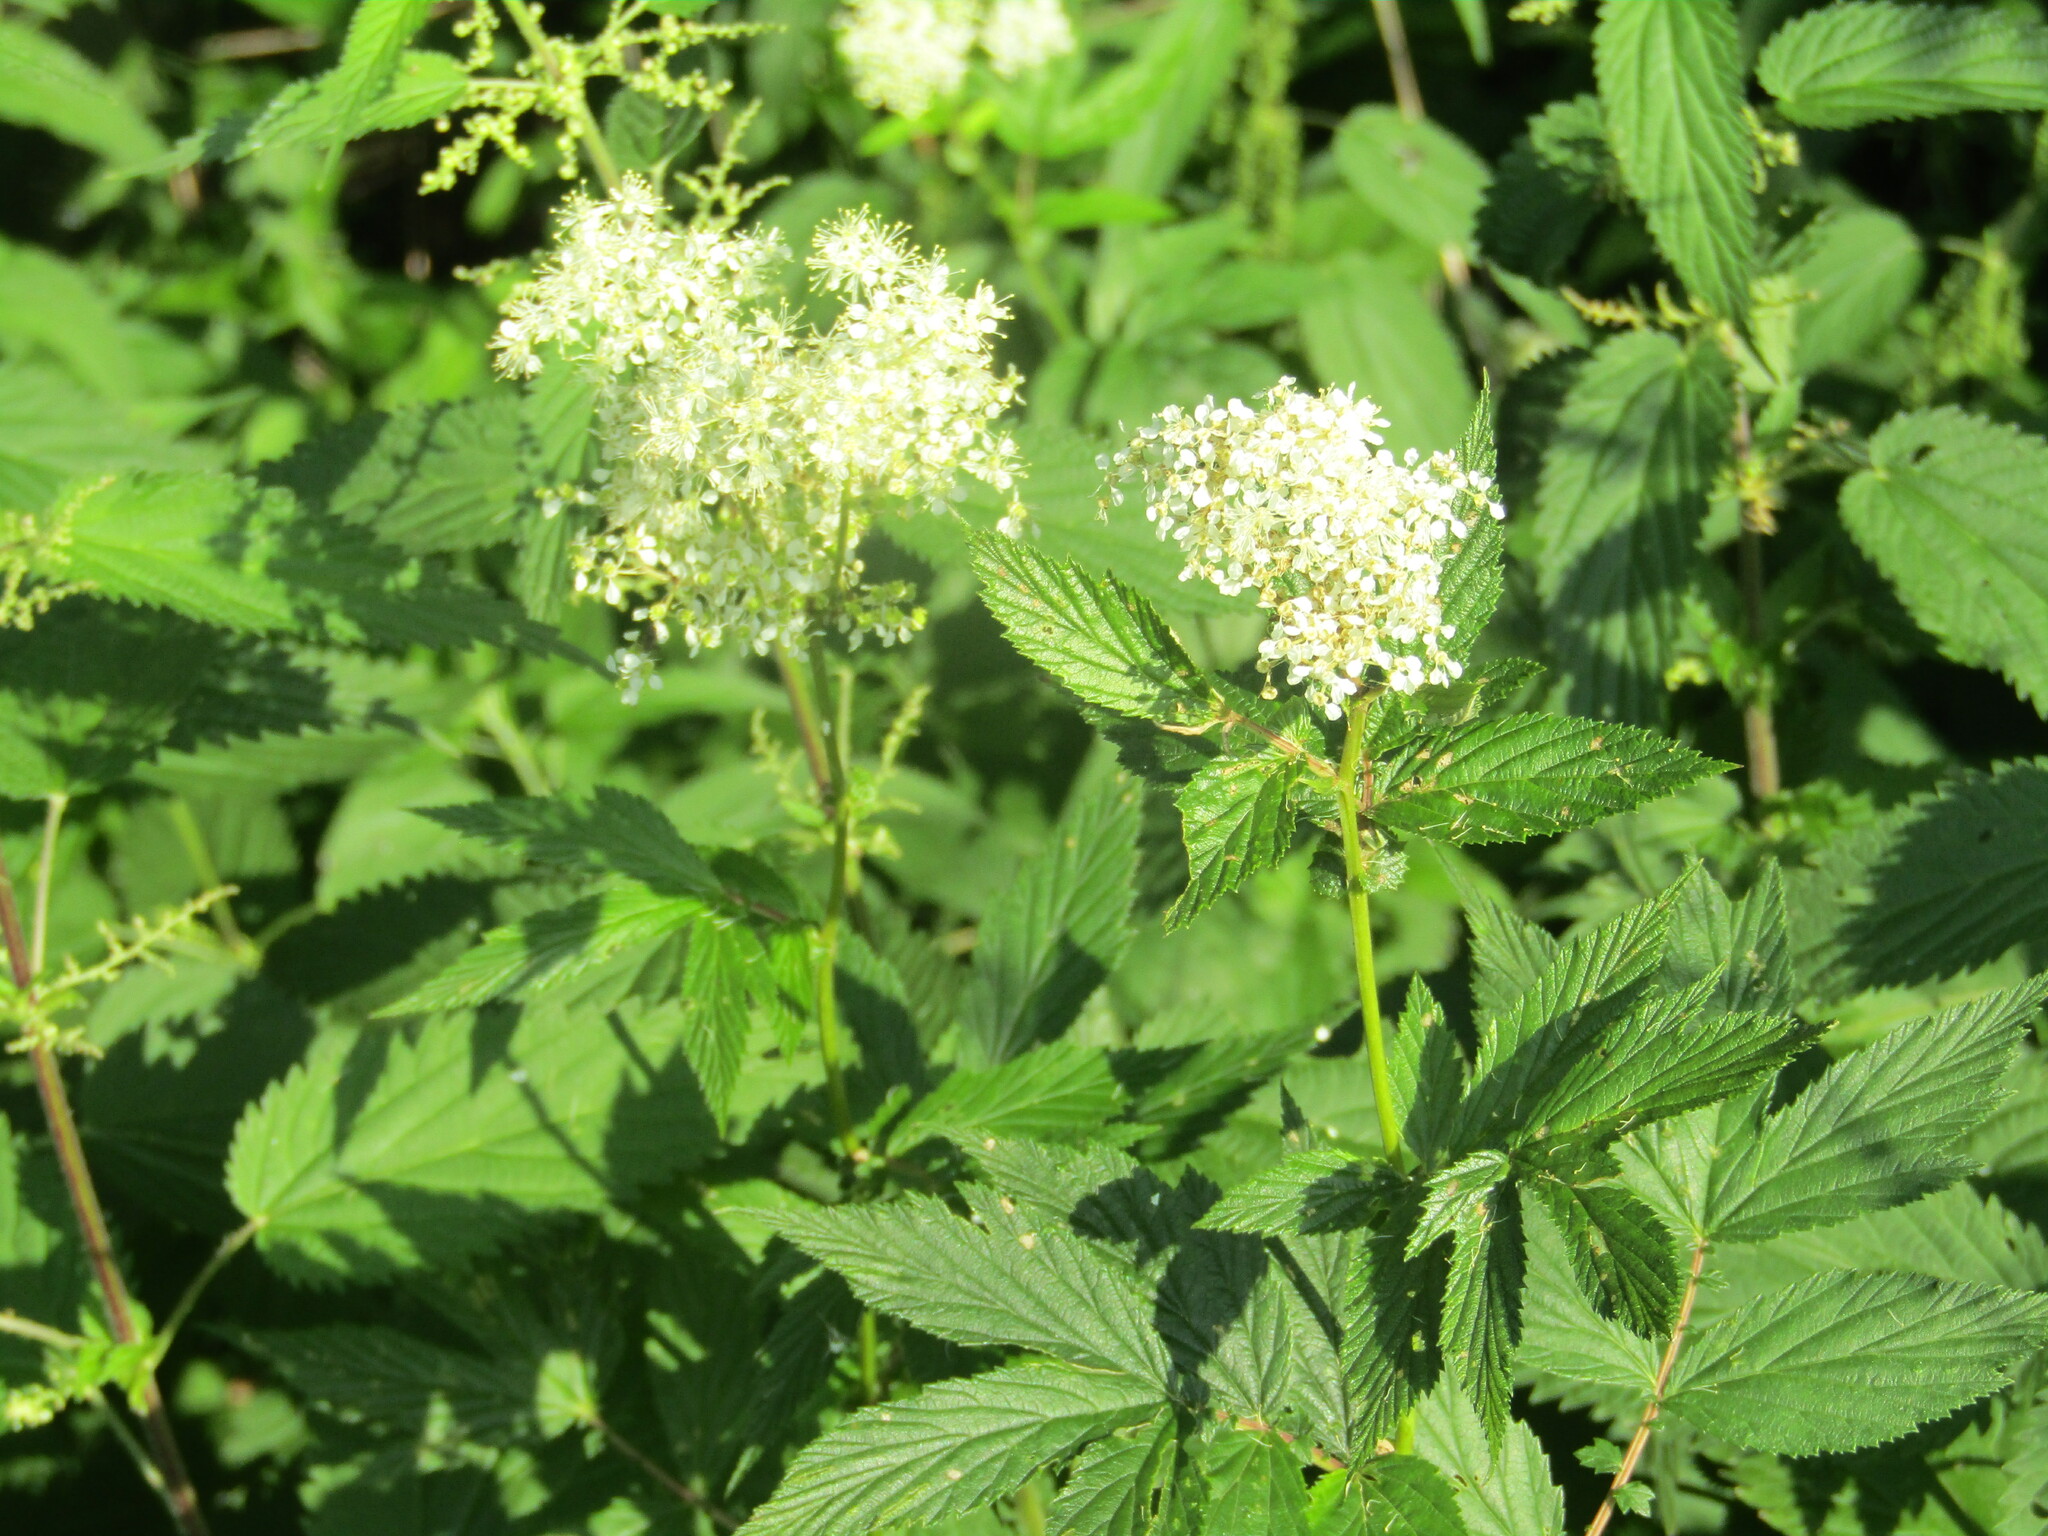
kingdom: Plantae
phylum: Tracheophyta
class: Magnoliopsida
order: Rosales
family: Rosaceae
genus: Filipendula
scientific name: Filipendula ulmaria
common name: Meadowsweet
